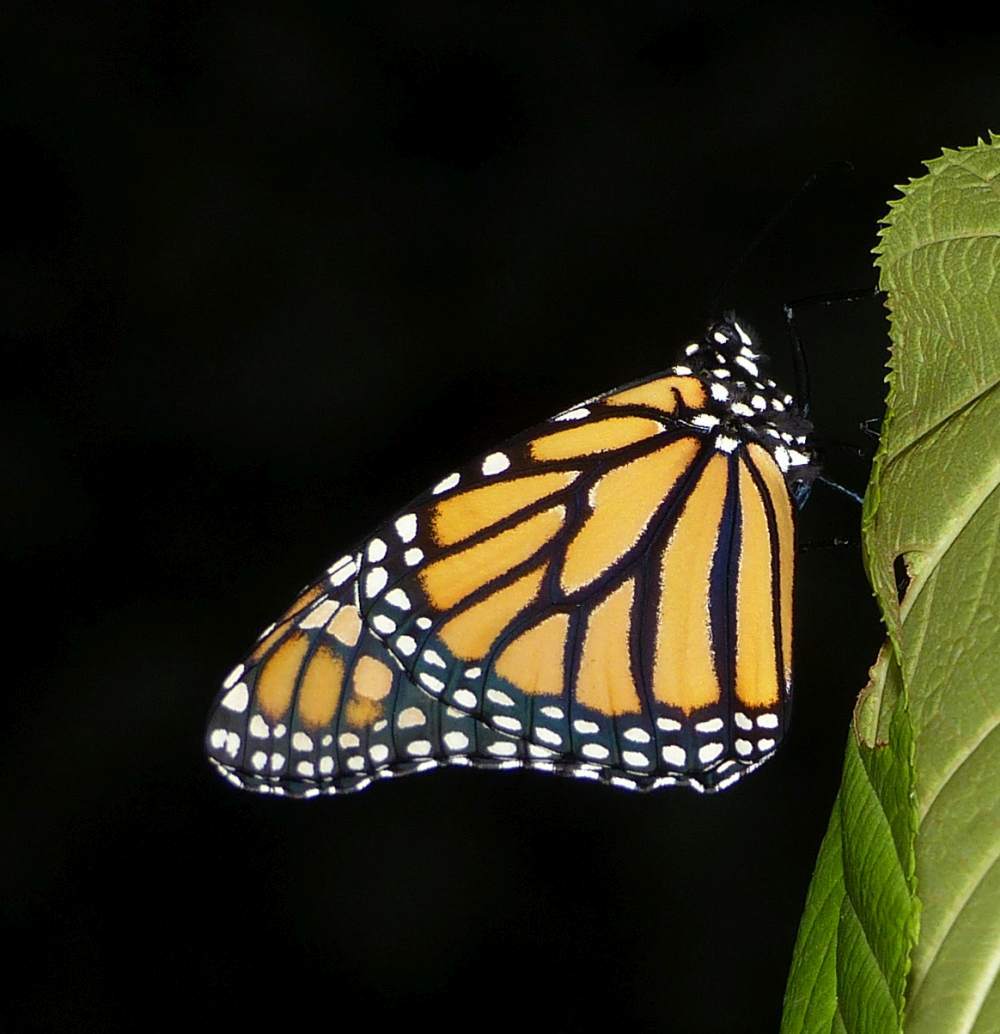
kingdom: Animalia
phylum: Arthropoda
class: Insecta
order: Lepidoptera
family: Nymphalidae
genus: Danaus
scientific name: Danaus plexippus
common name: Monarch
